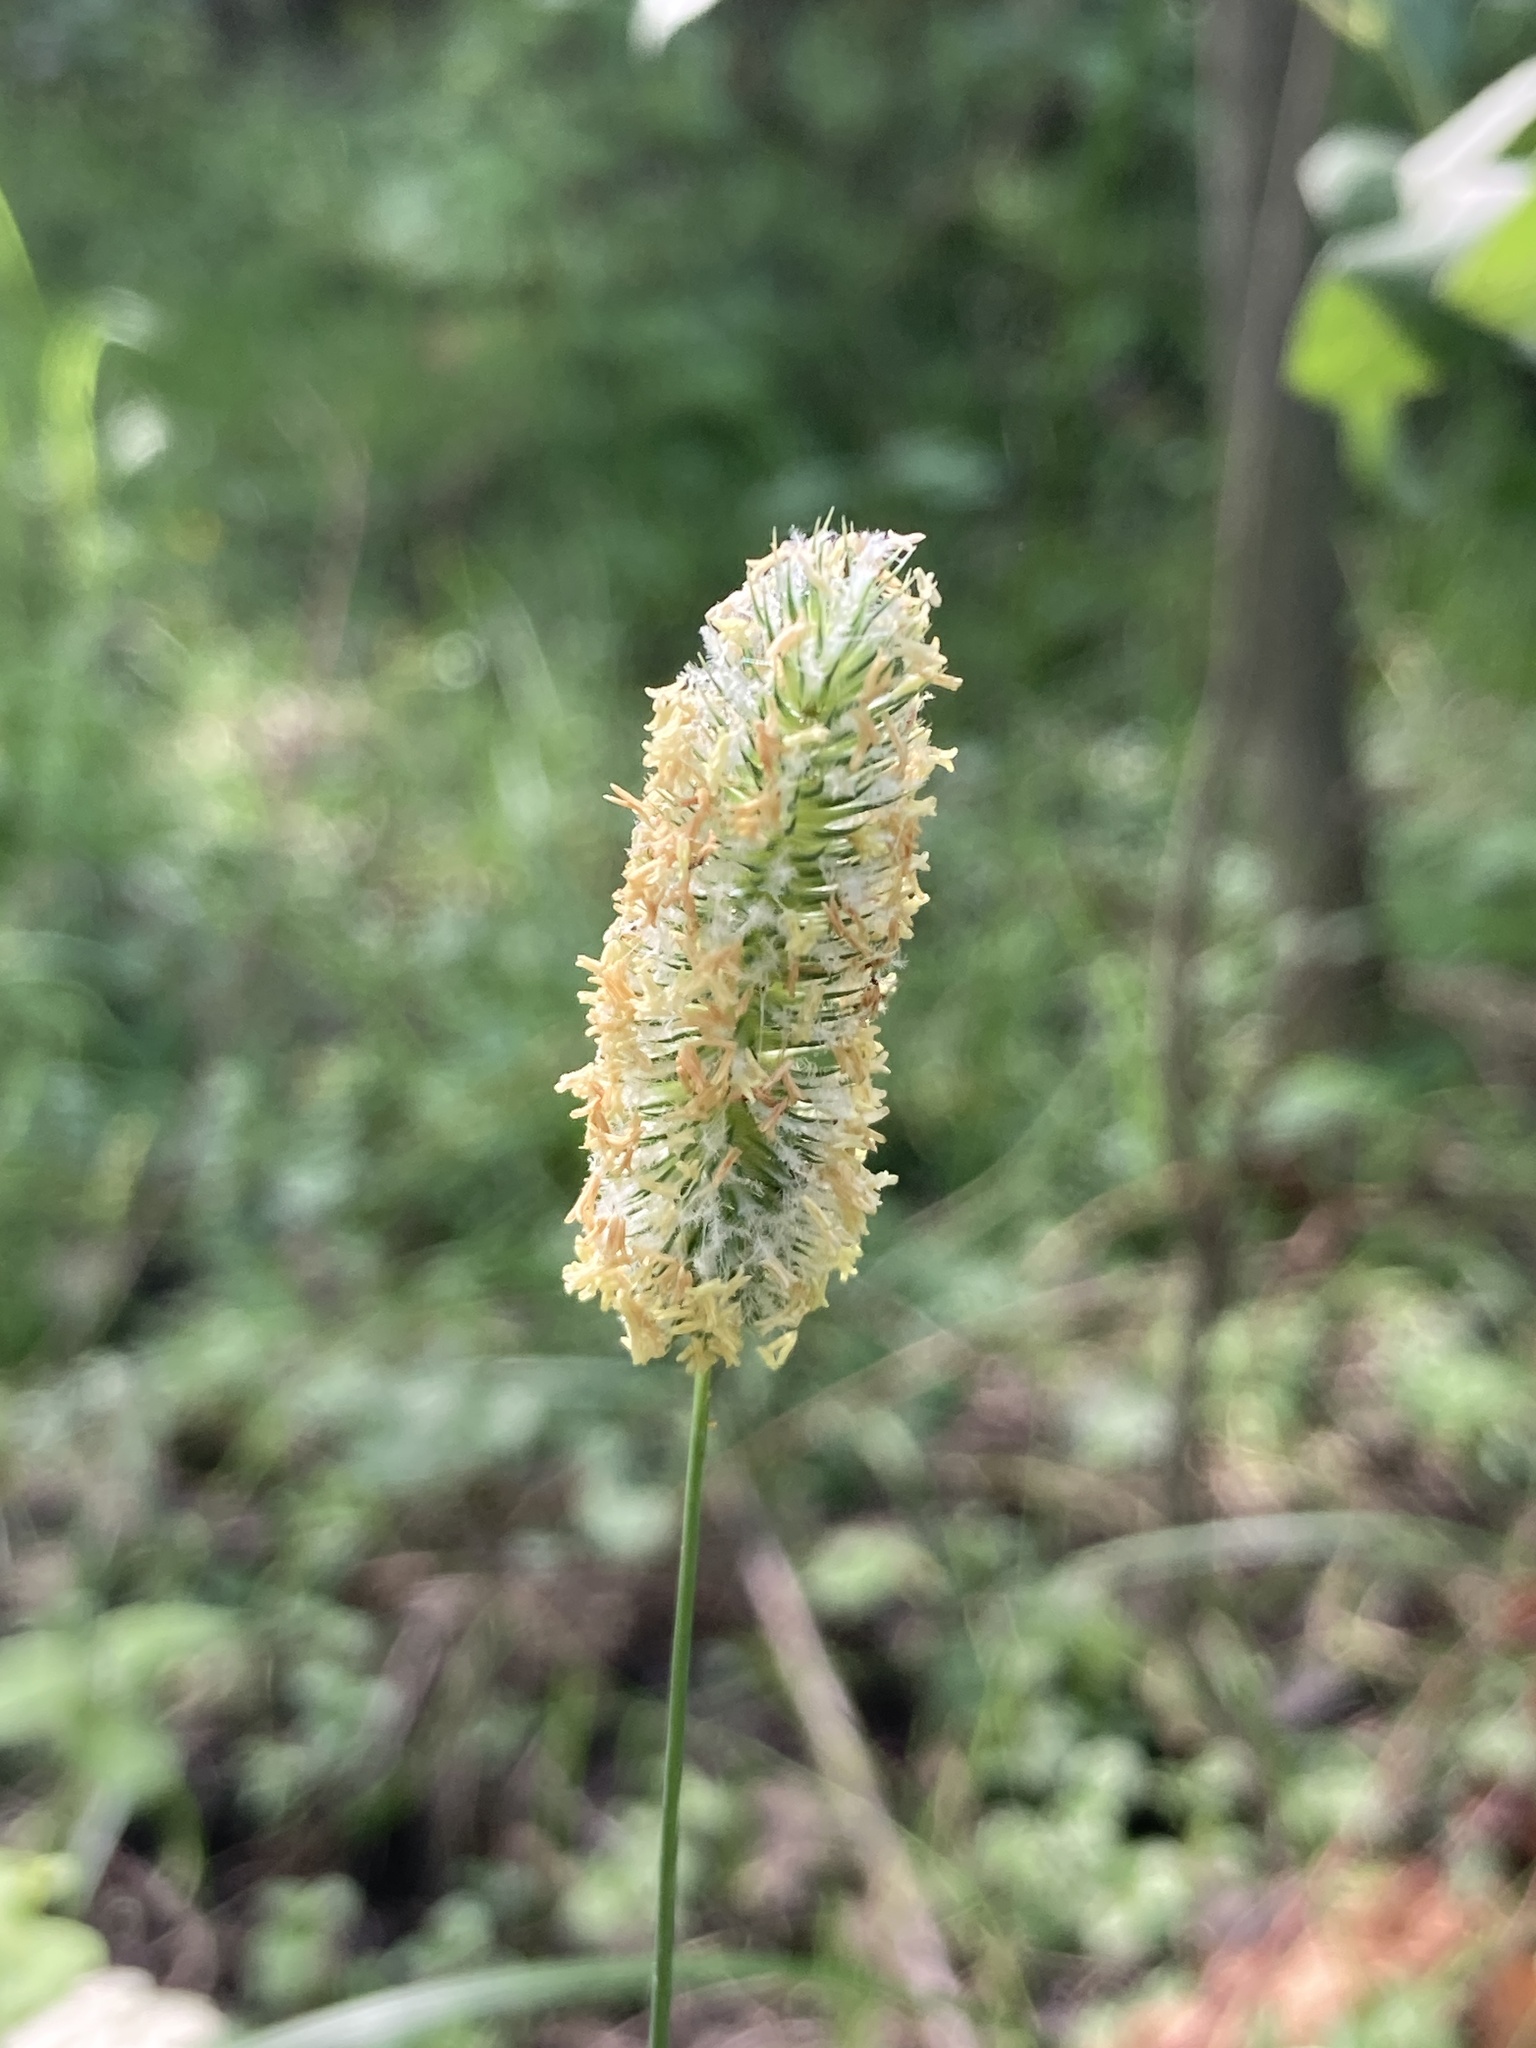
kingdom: Plantae
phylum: Tracheophyta
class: Liliopsida
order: Poales
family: Poaceae
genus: Phleum
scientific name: Phleum pratense
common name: Timothy grass
